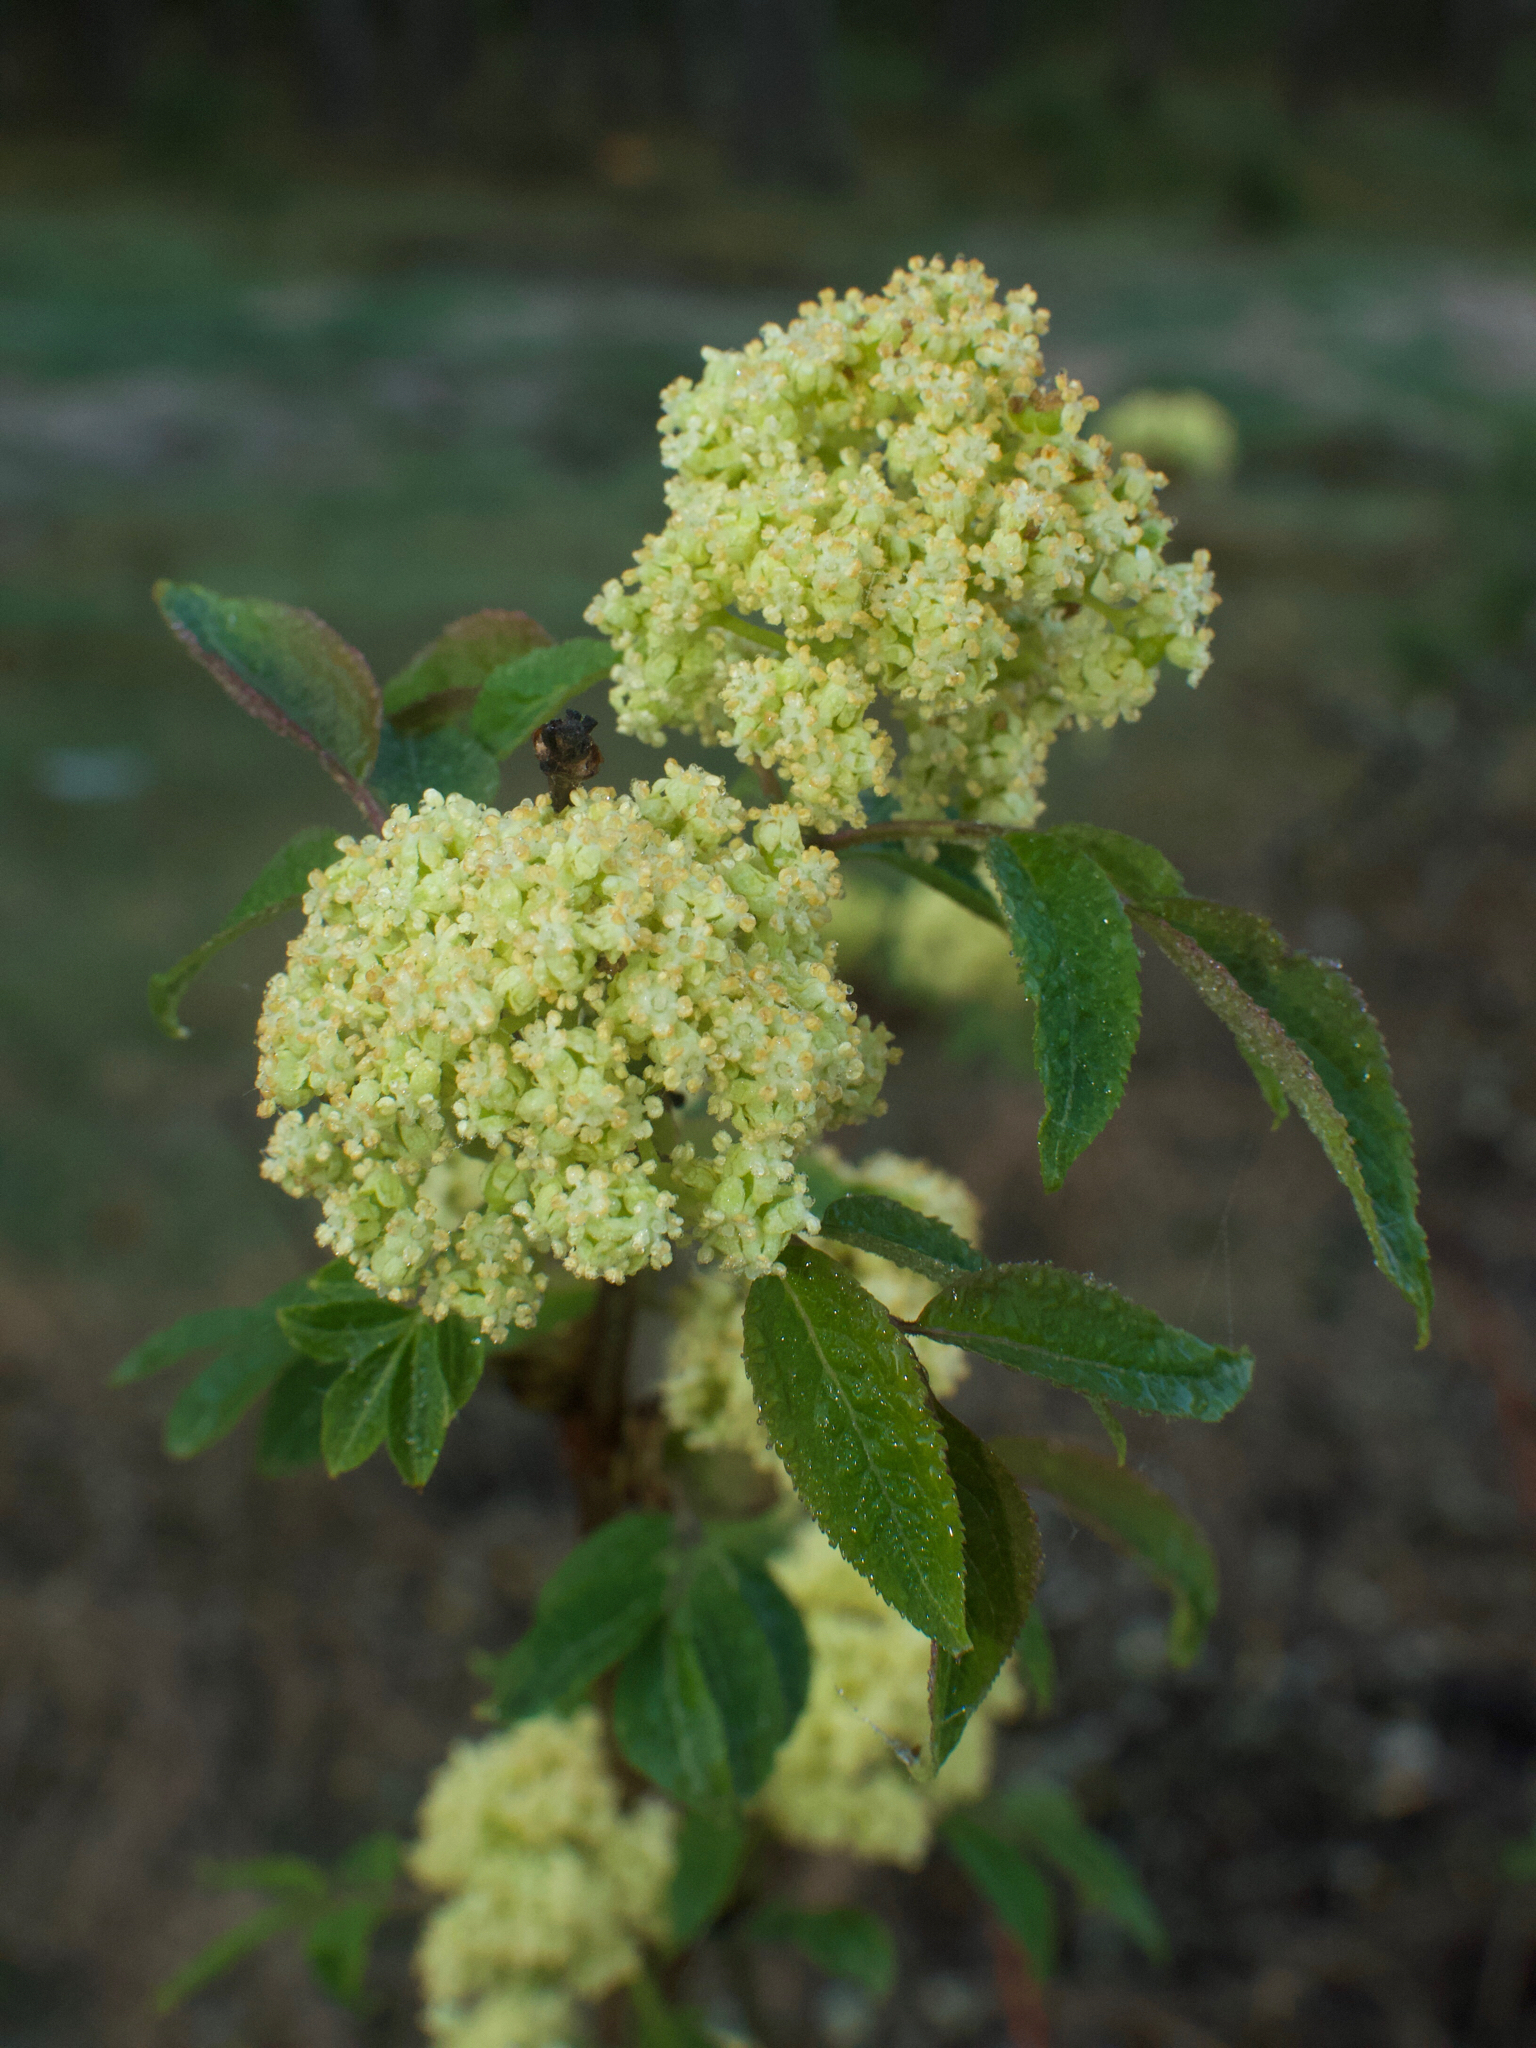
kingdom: Plantae
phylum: Tracheophyta
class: Magnoliopsida
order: Dipsacales
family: Viburnaceae
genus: Sambucus
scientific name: Sambucus racemosa
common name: Red-berried elder
